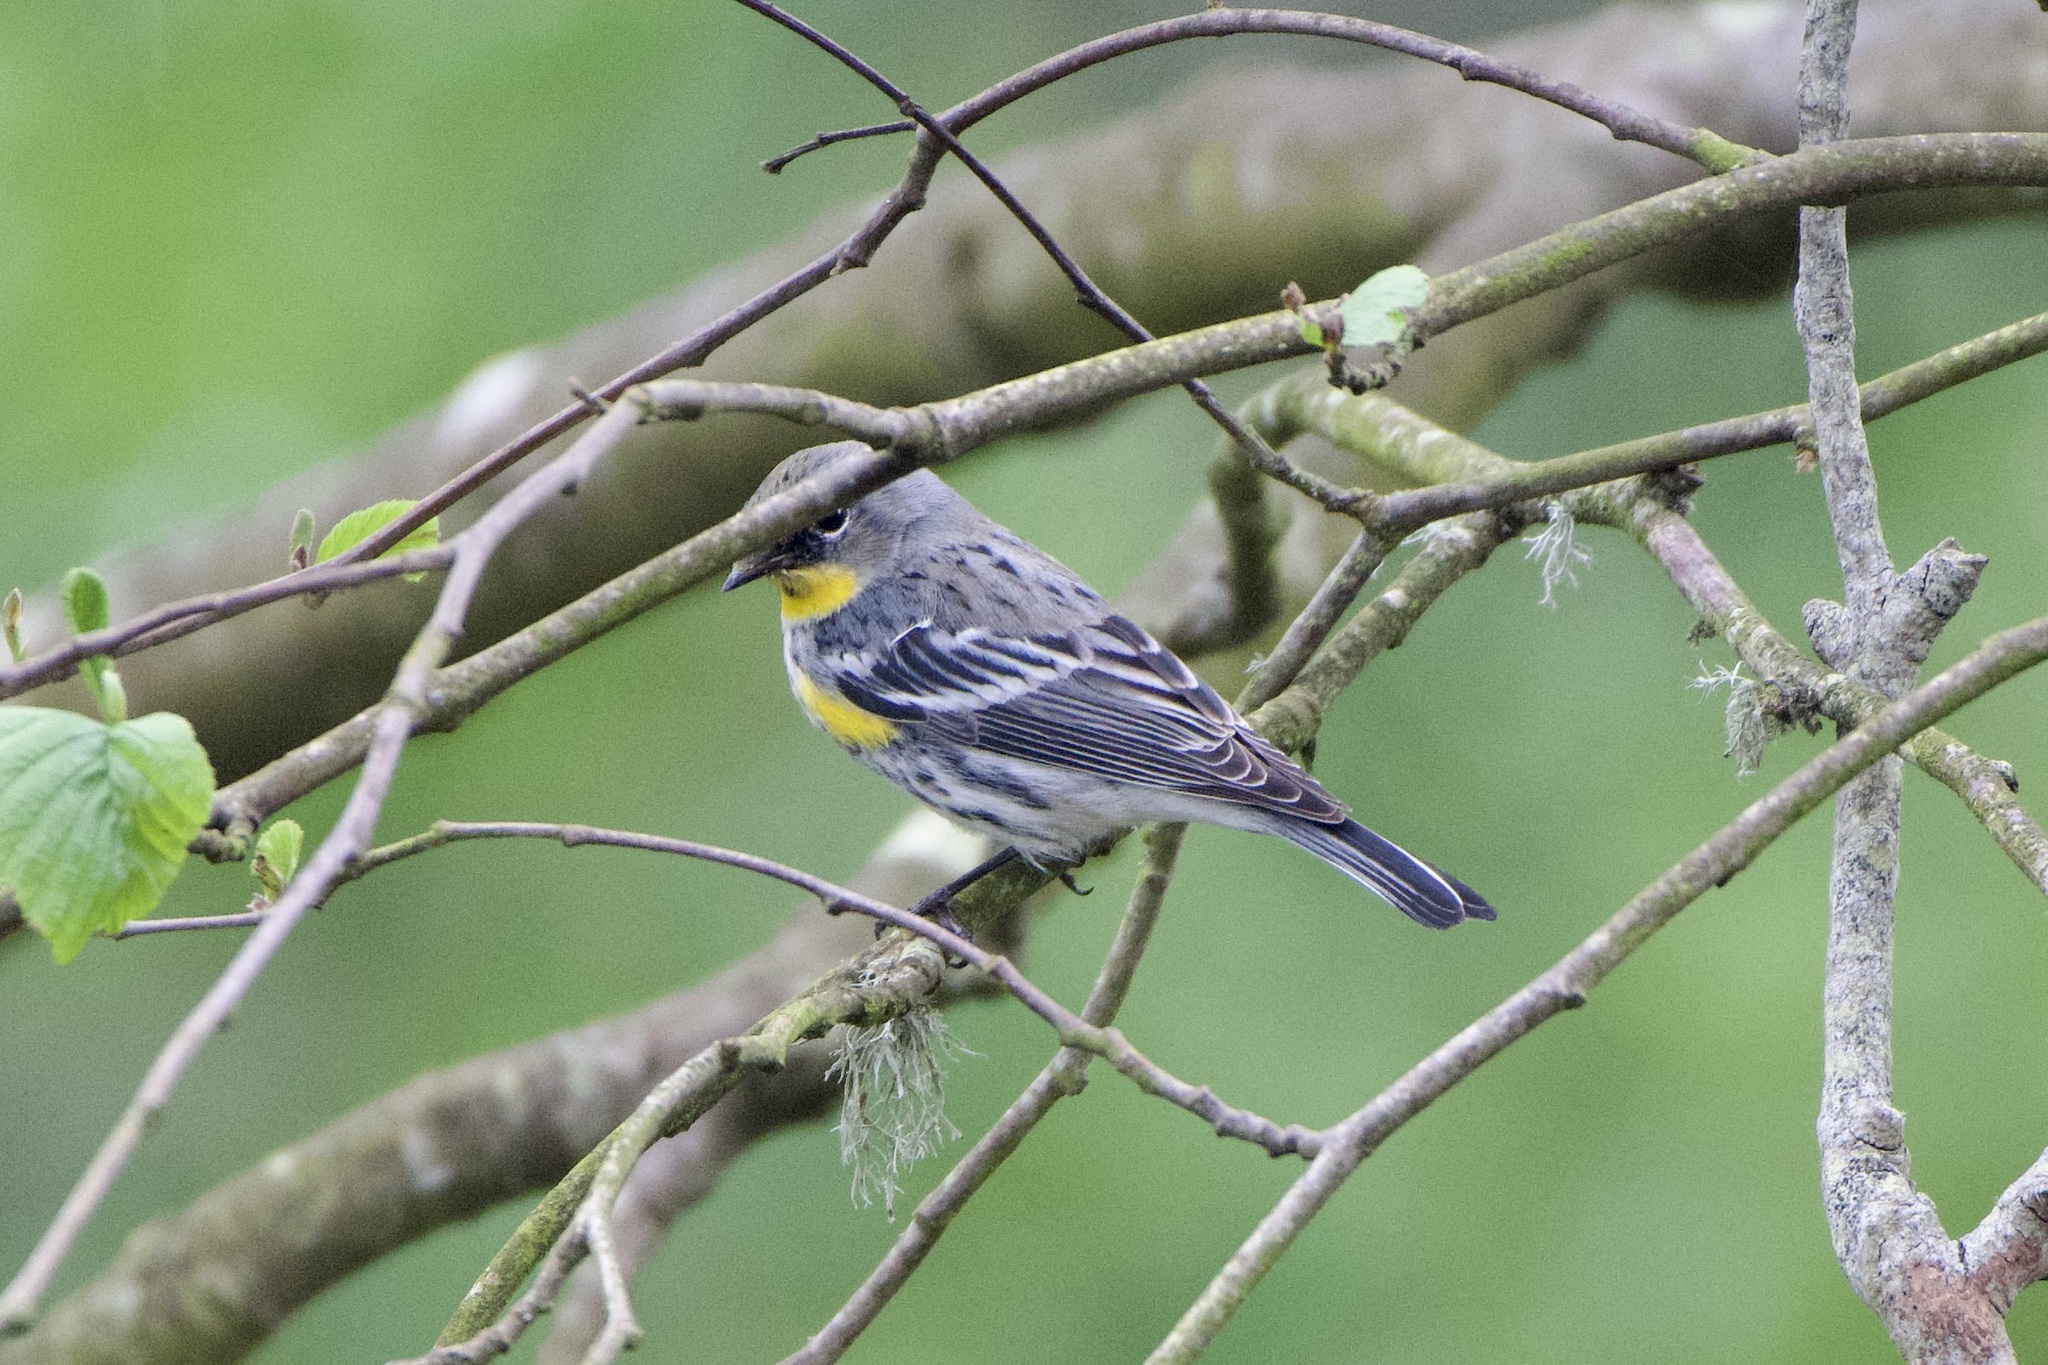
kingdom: Animalia
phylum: Chordata
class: Aves
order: Passeriformes
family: Parulidae
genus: Setophaga
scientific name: Setophaga auduboni
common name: Audubon's warbler
